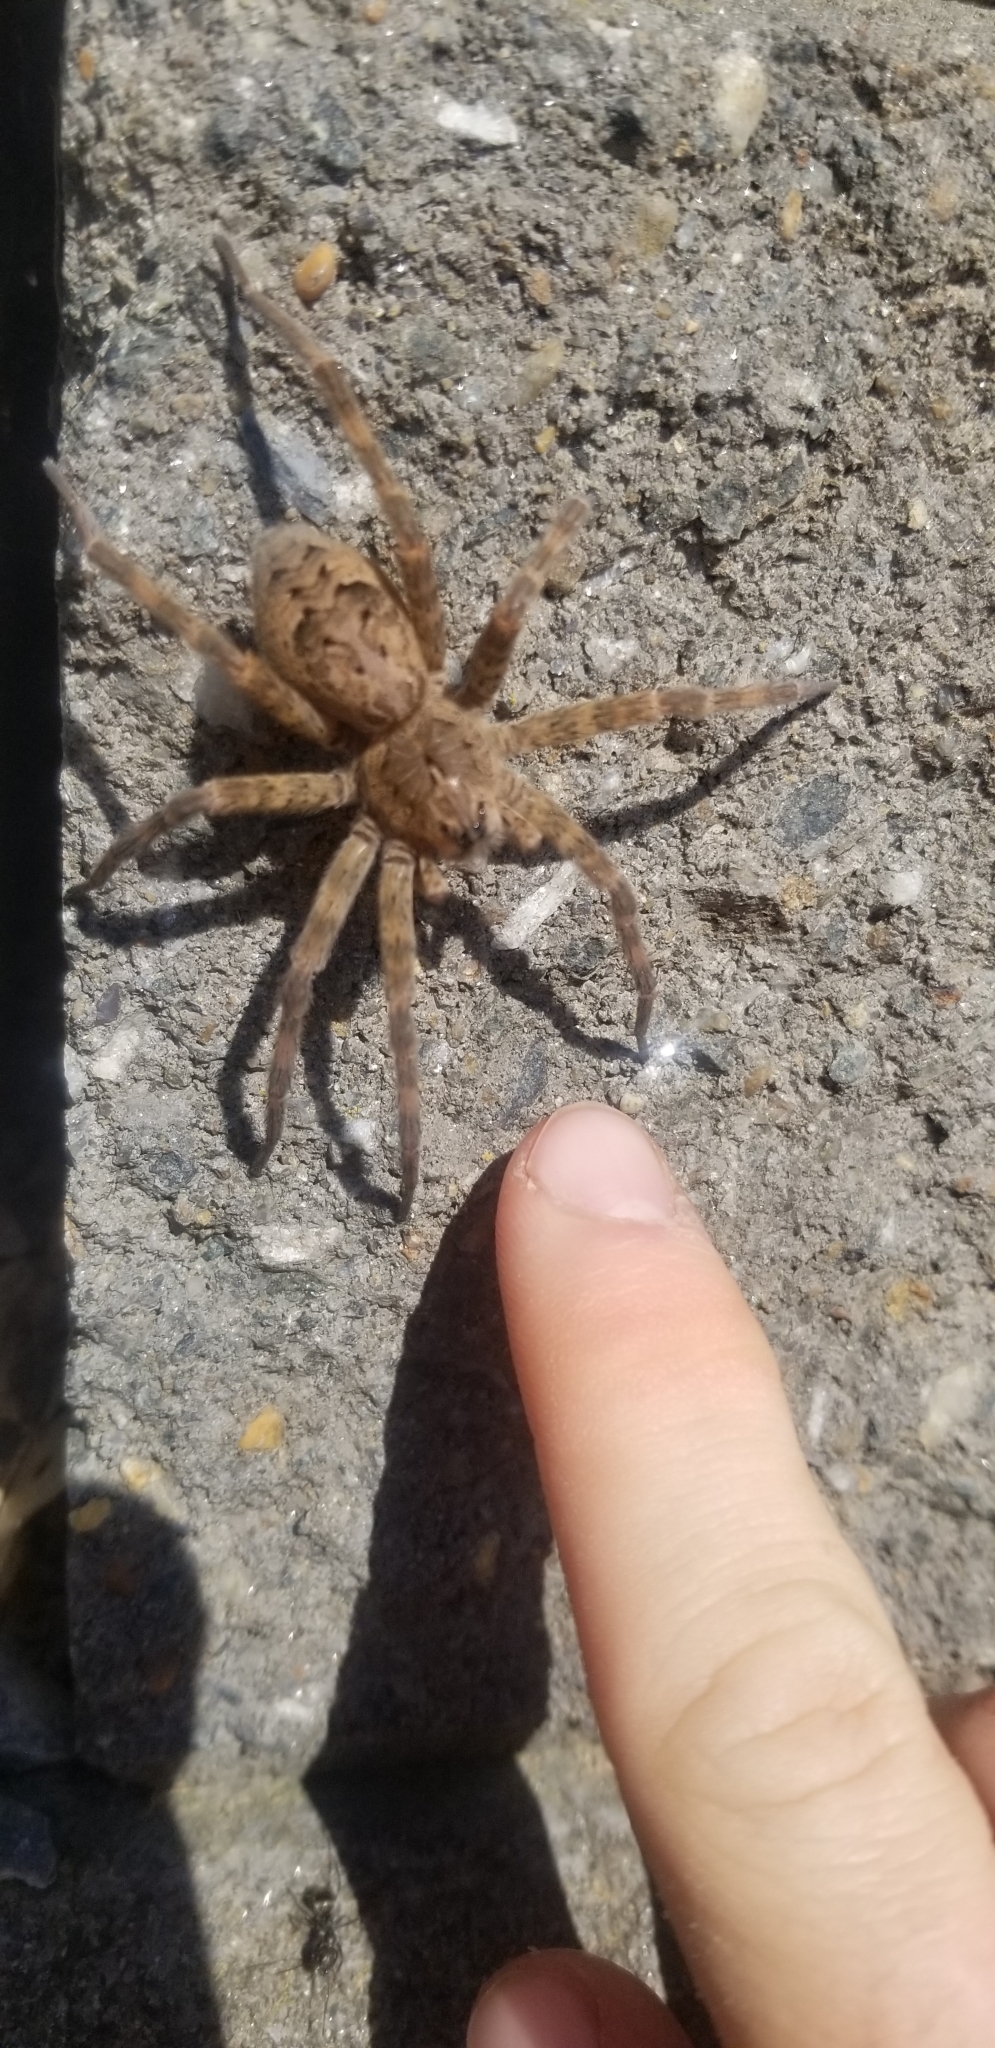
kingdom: Animalia
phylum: Arthropoda
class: Arachnida
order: Araneae
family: Pisauridae
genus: Dolomedes
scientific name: Dolomedes tenebrosus
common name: Dark fishing spider
